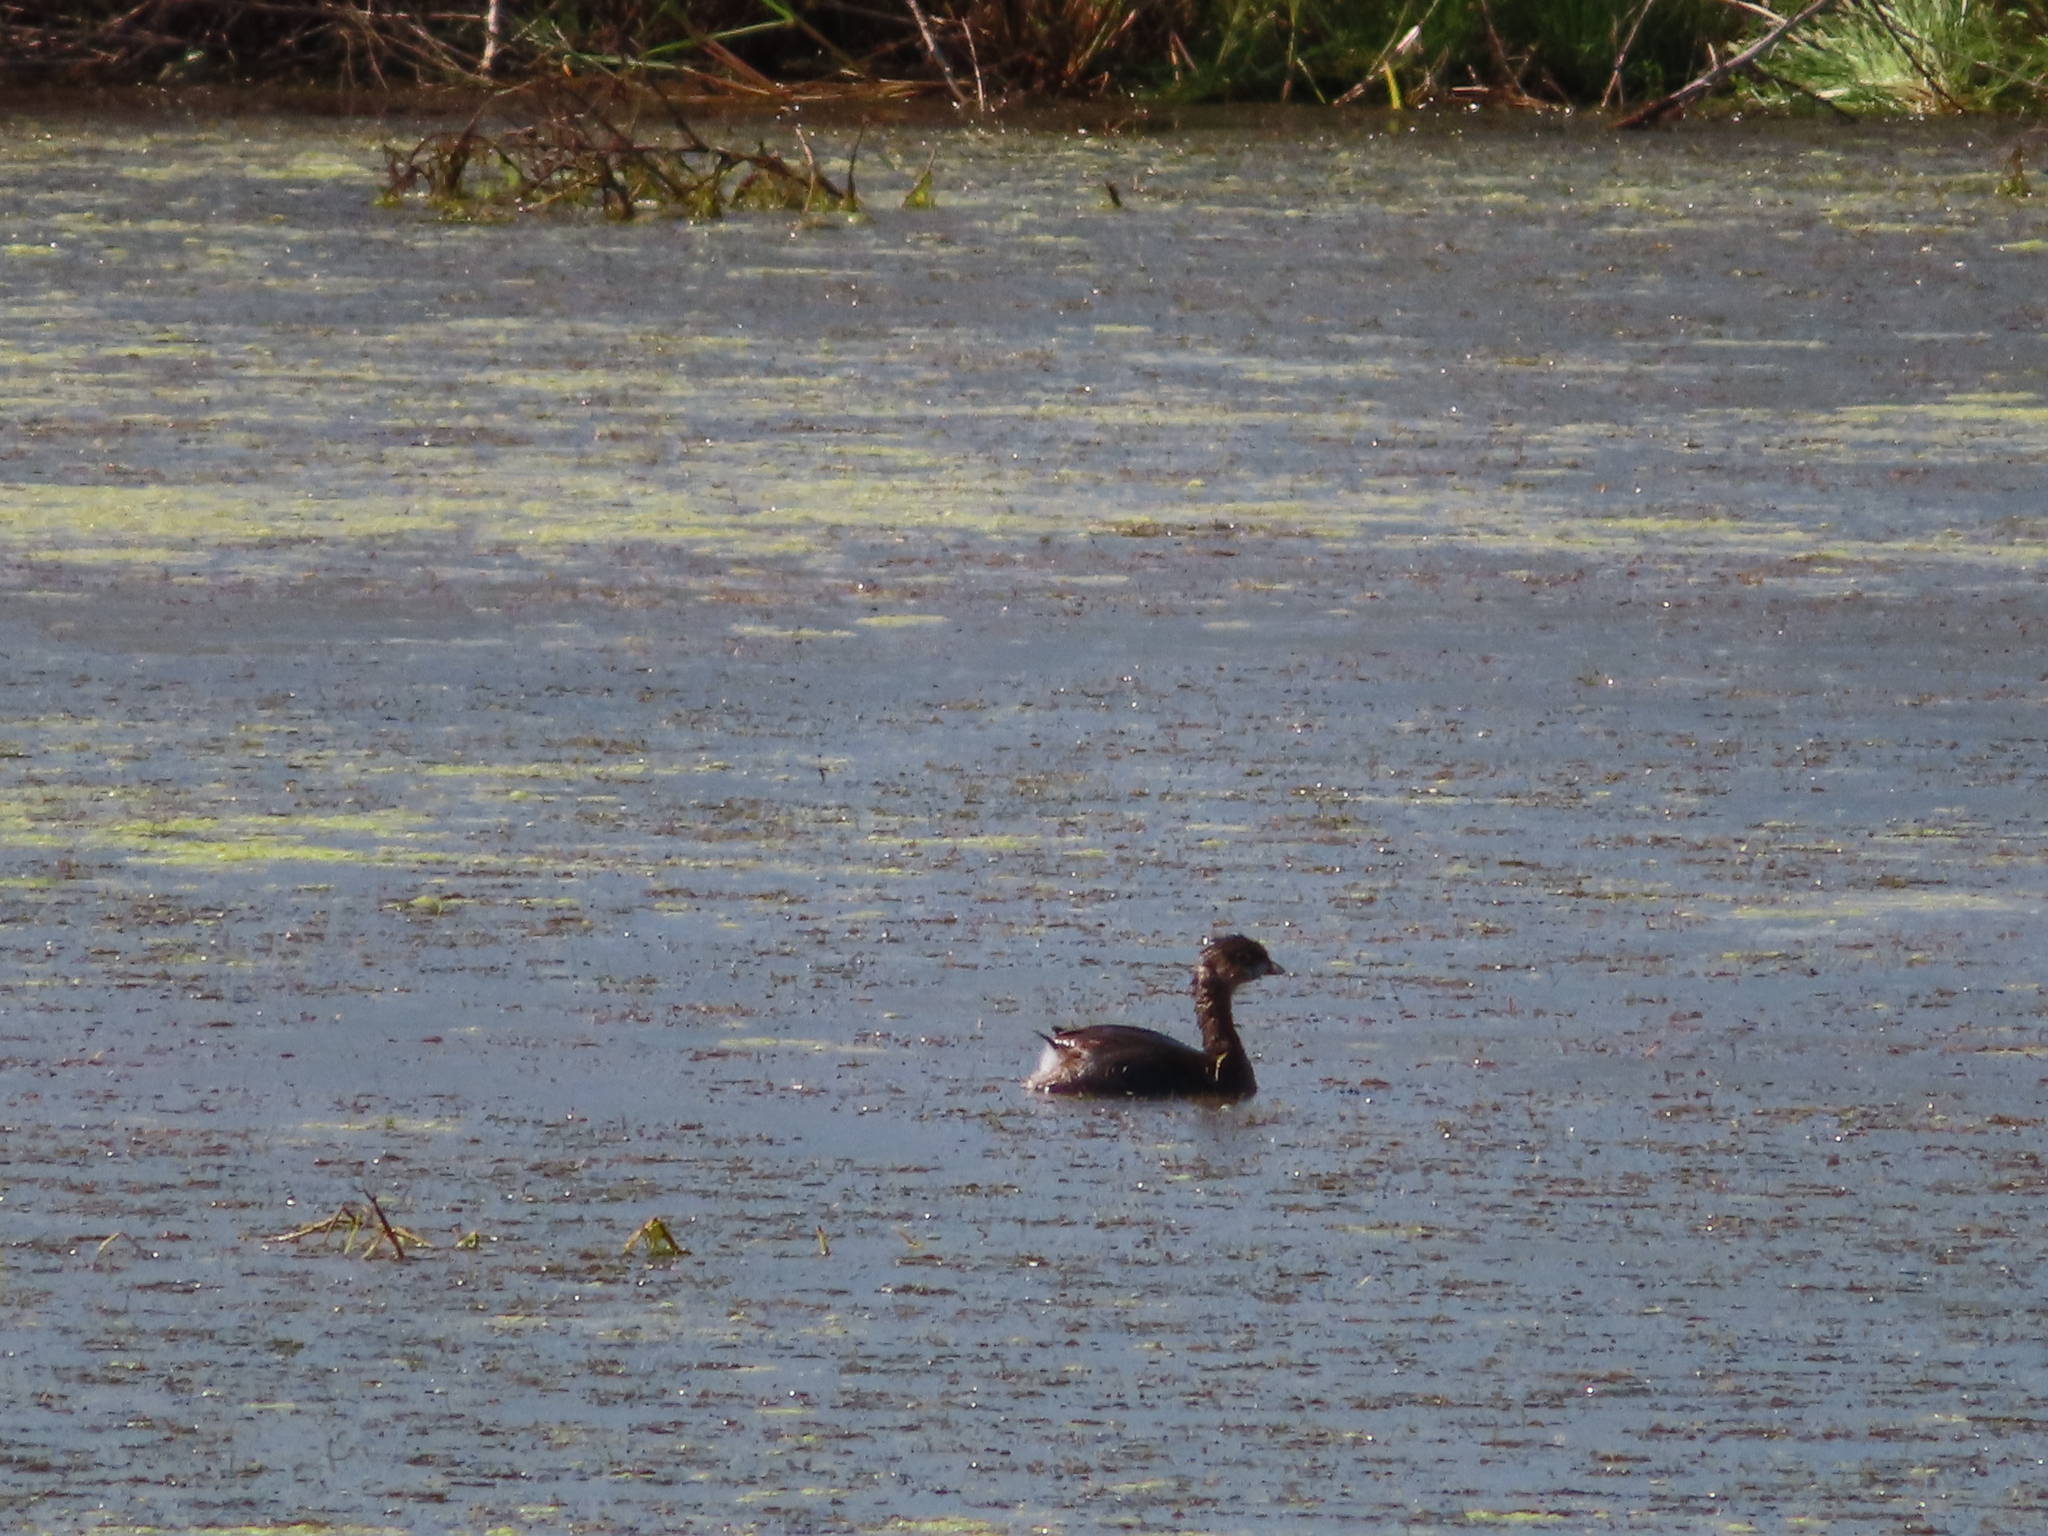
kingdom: Animalia
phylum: Chordata
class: Aves
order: Podicipediformes
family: Podicipedidae
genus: Podilymbus
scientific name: Podilymbus podiceps
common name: Pied-billed grebe
